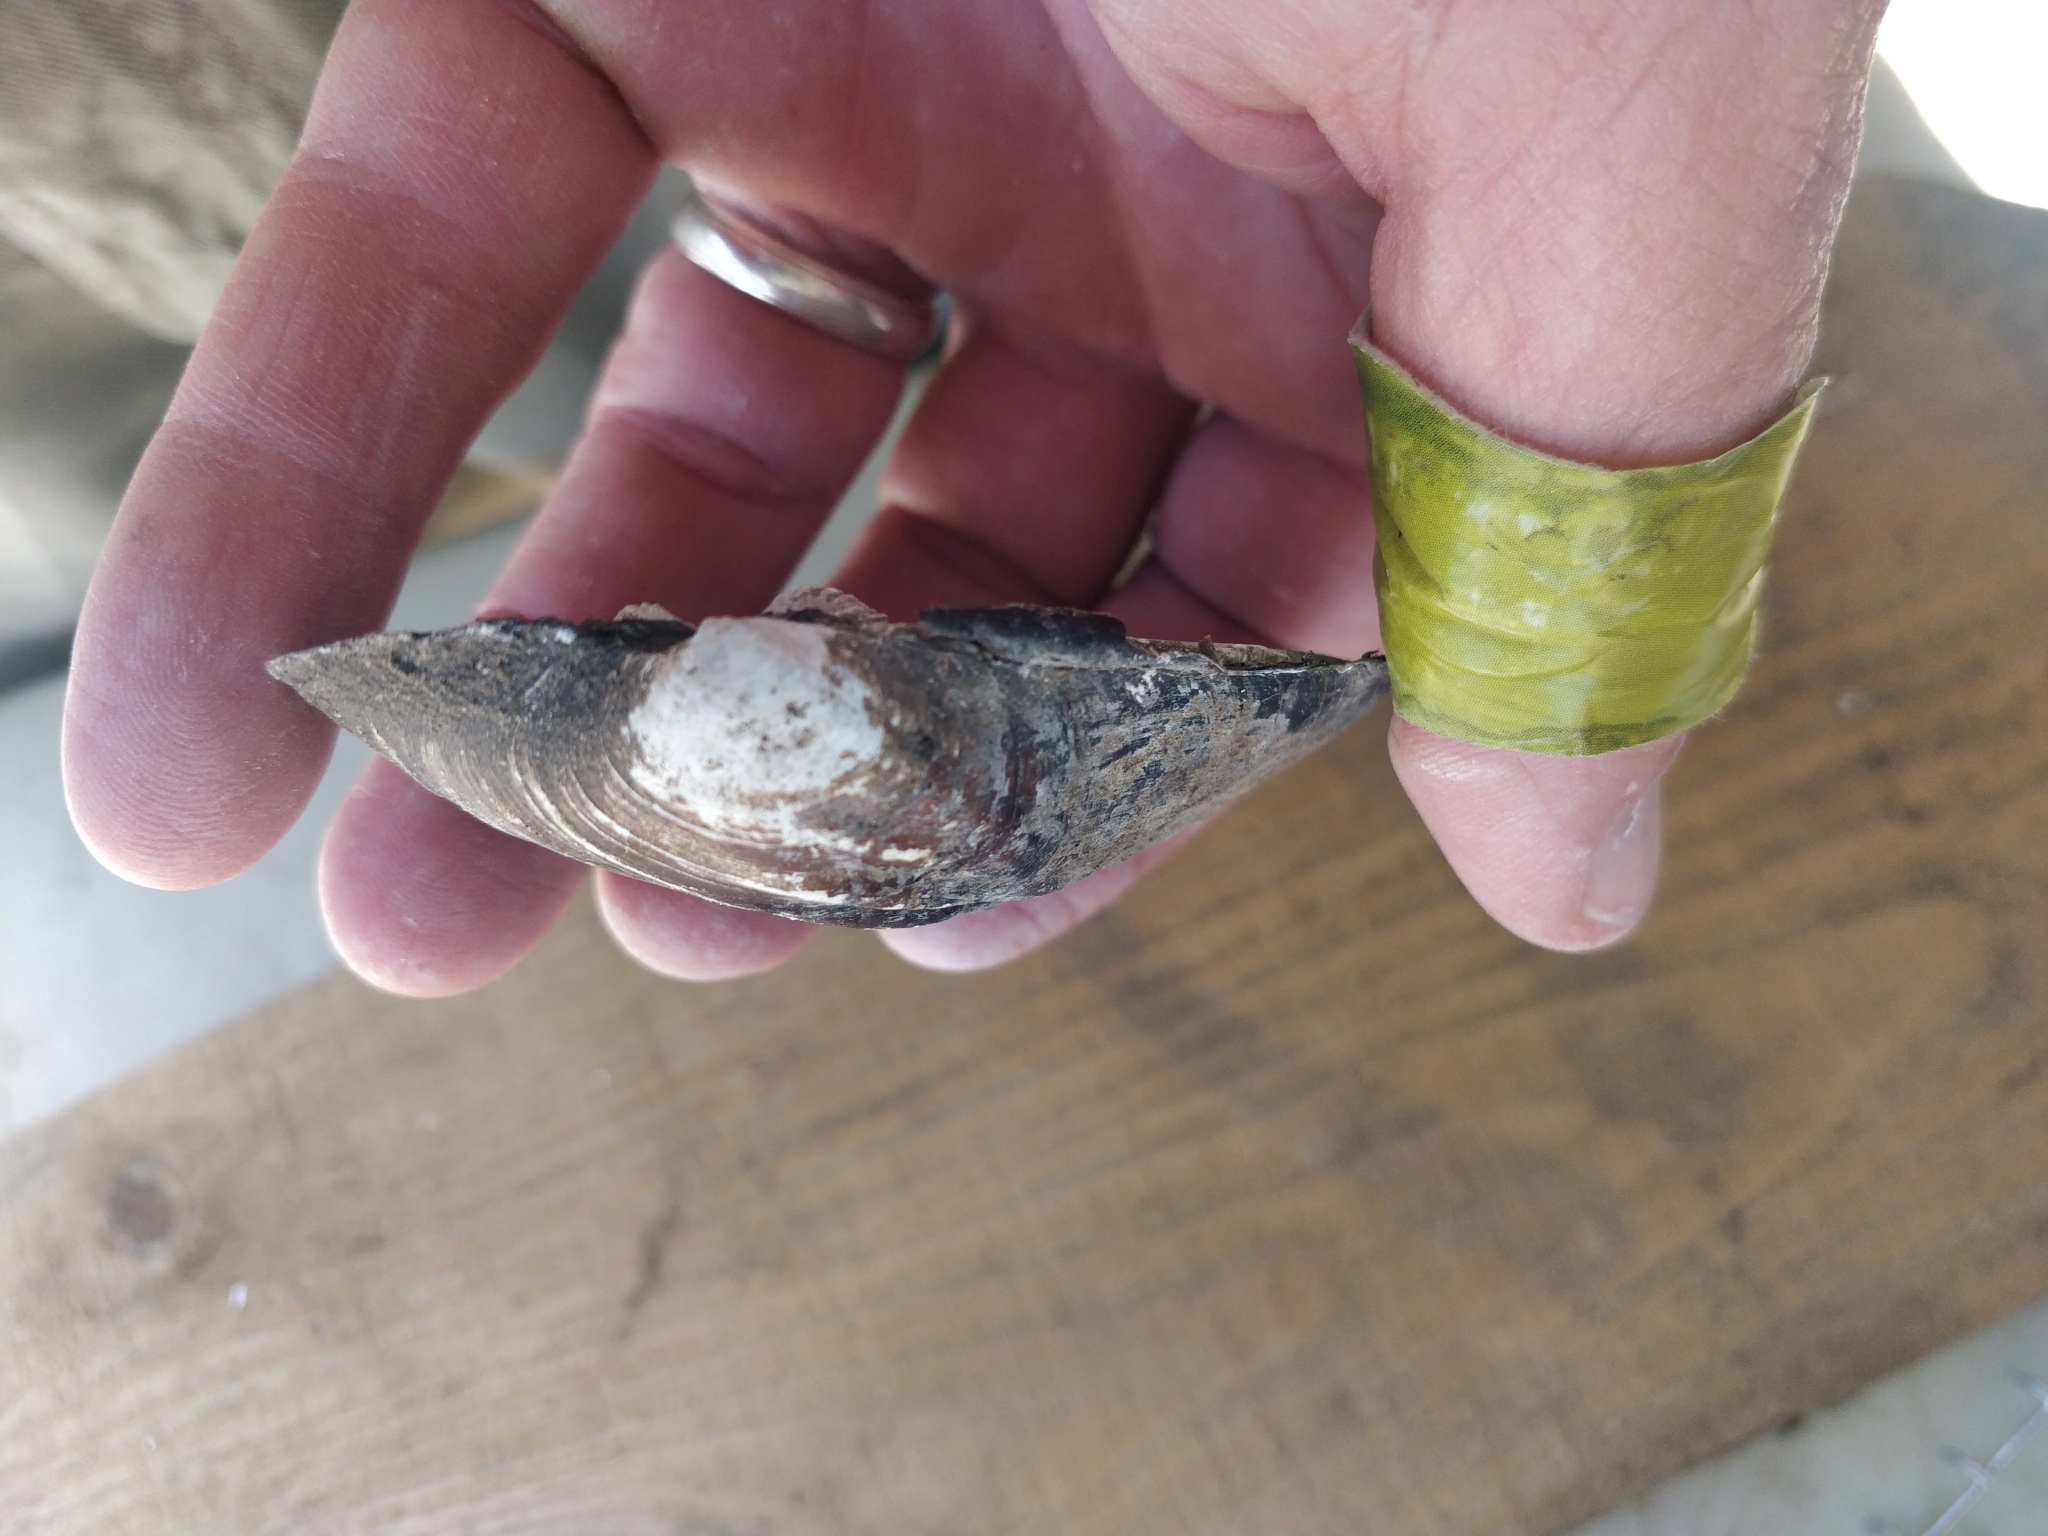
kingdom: Animalia
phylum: Mollusca
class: Bivalvia
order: Unionida
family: Unionidae
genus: Amblema
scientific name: Amblema plicata
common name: Threeridge
